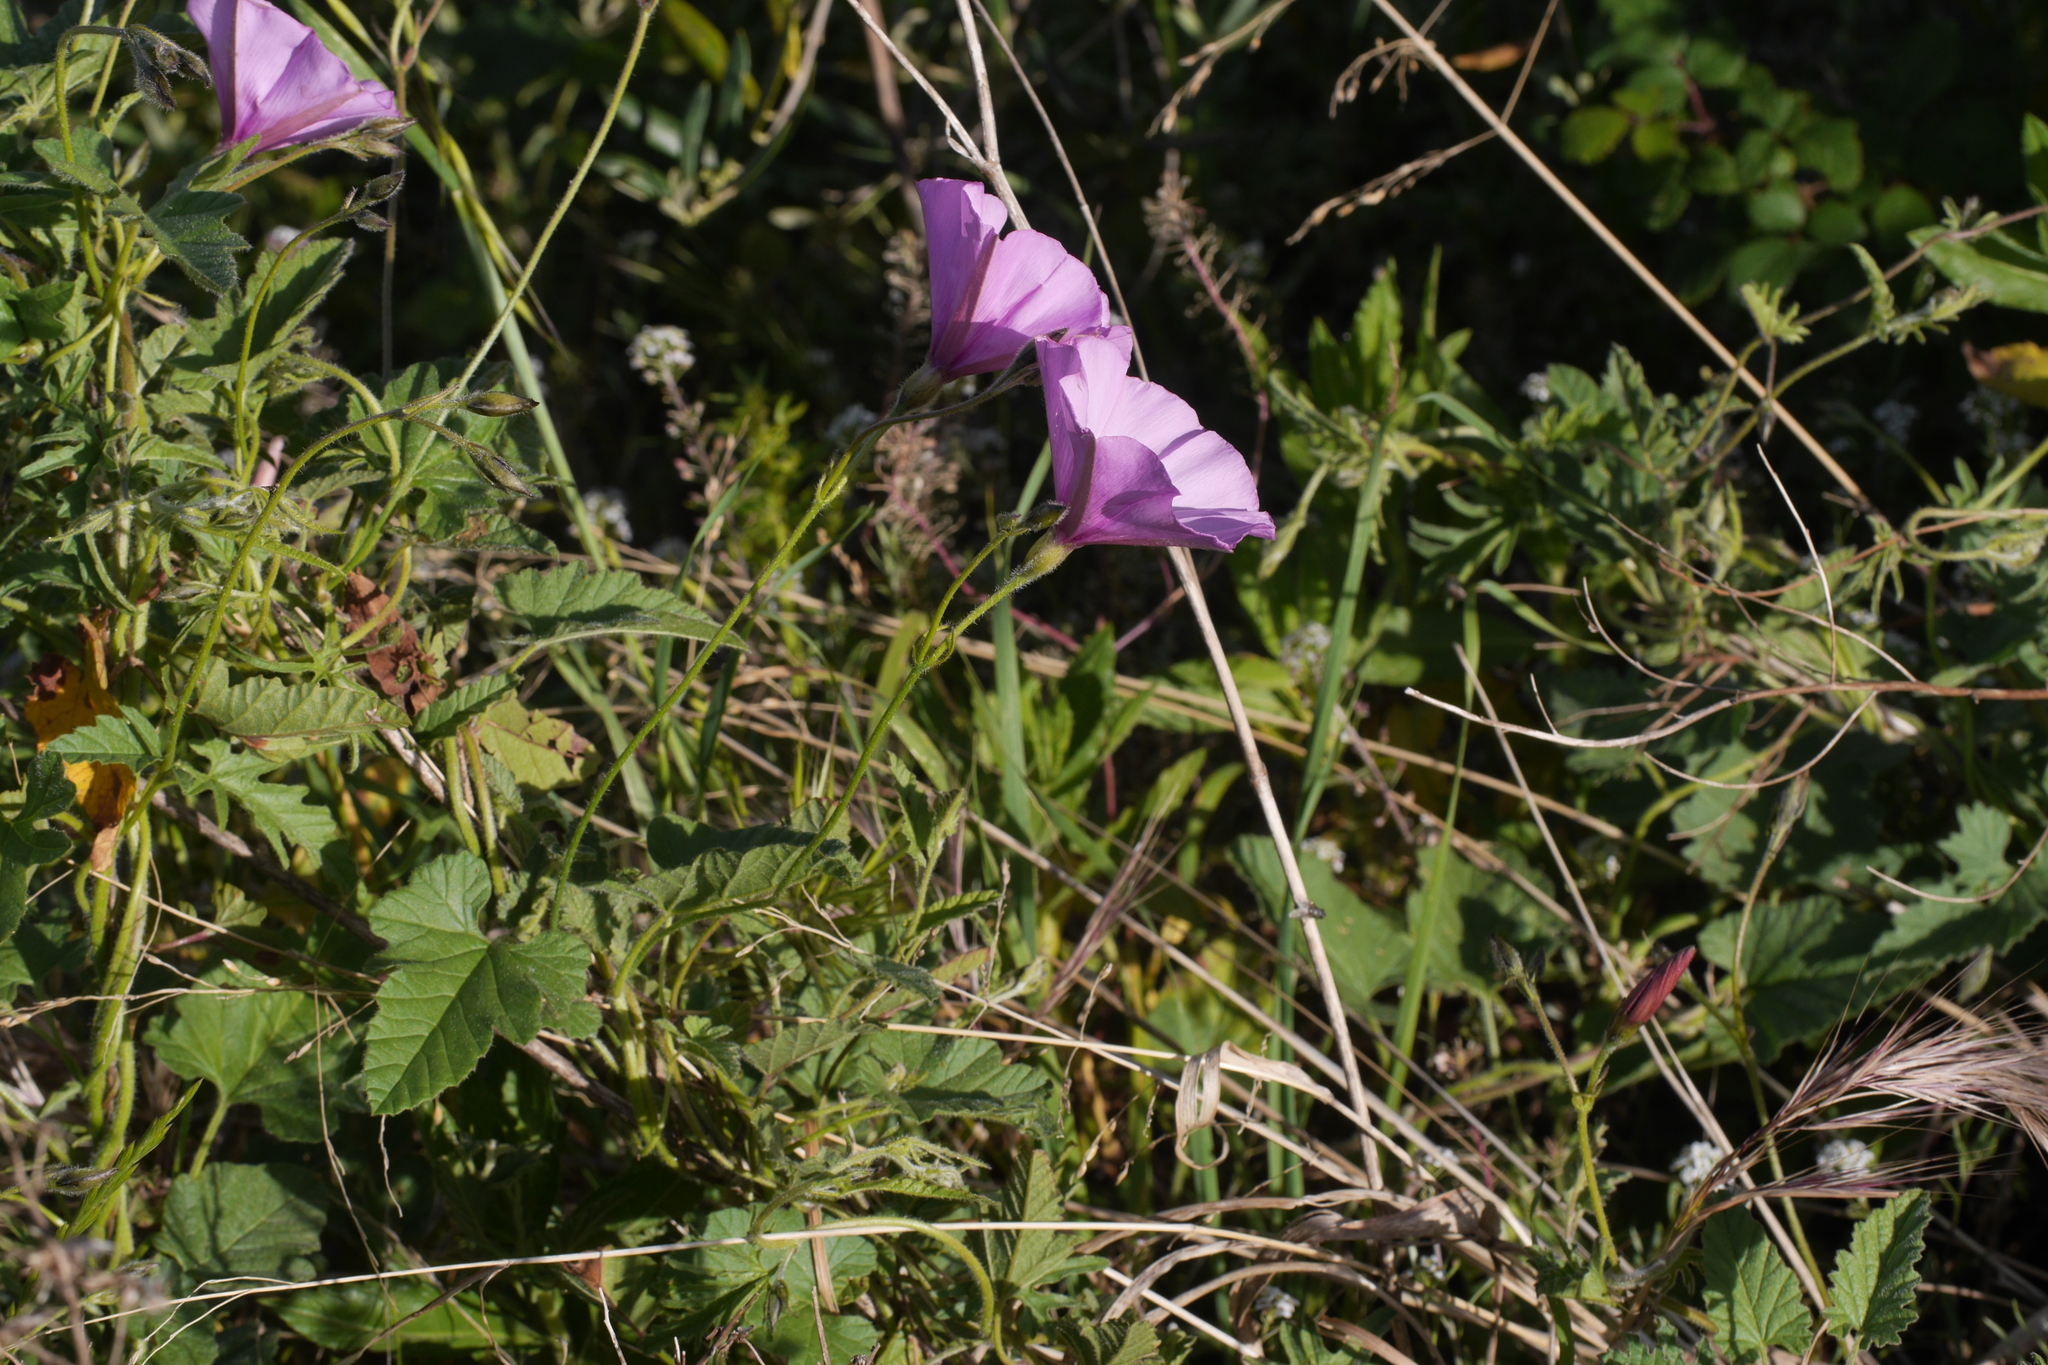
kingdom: Plantae
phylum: Tracheophyta
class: Magnoliopsida
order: Solanales
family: Convolvulaceae
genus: Convolvulus
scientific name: Convolvulus althaeoides
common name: Mallow bindweed
